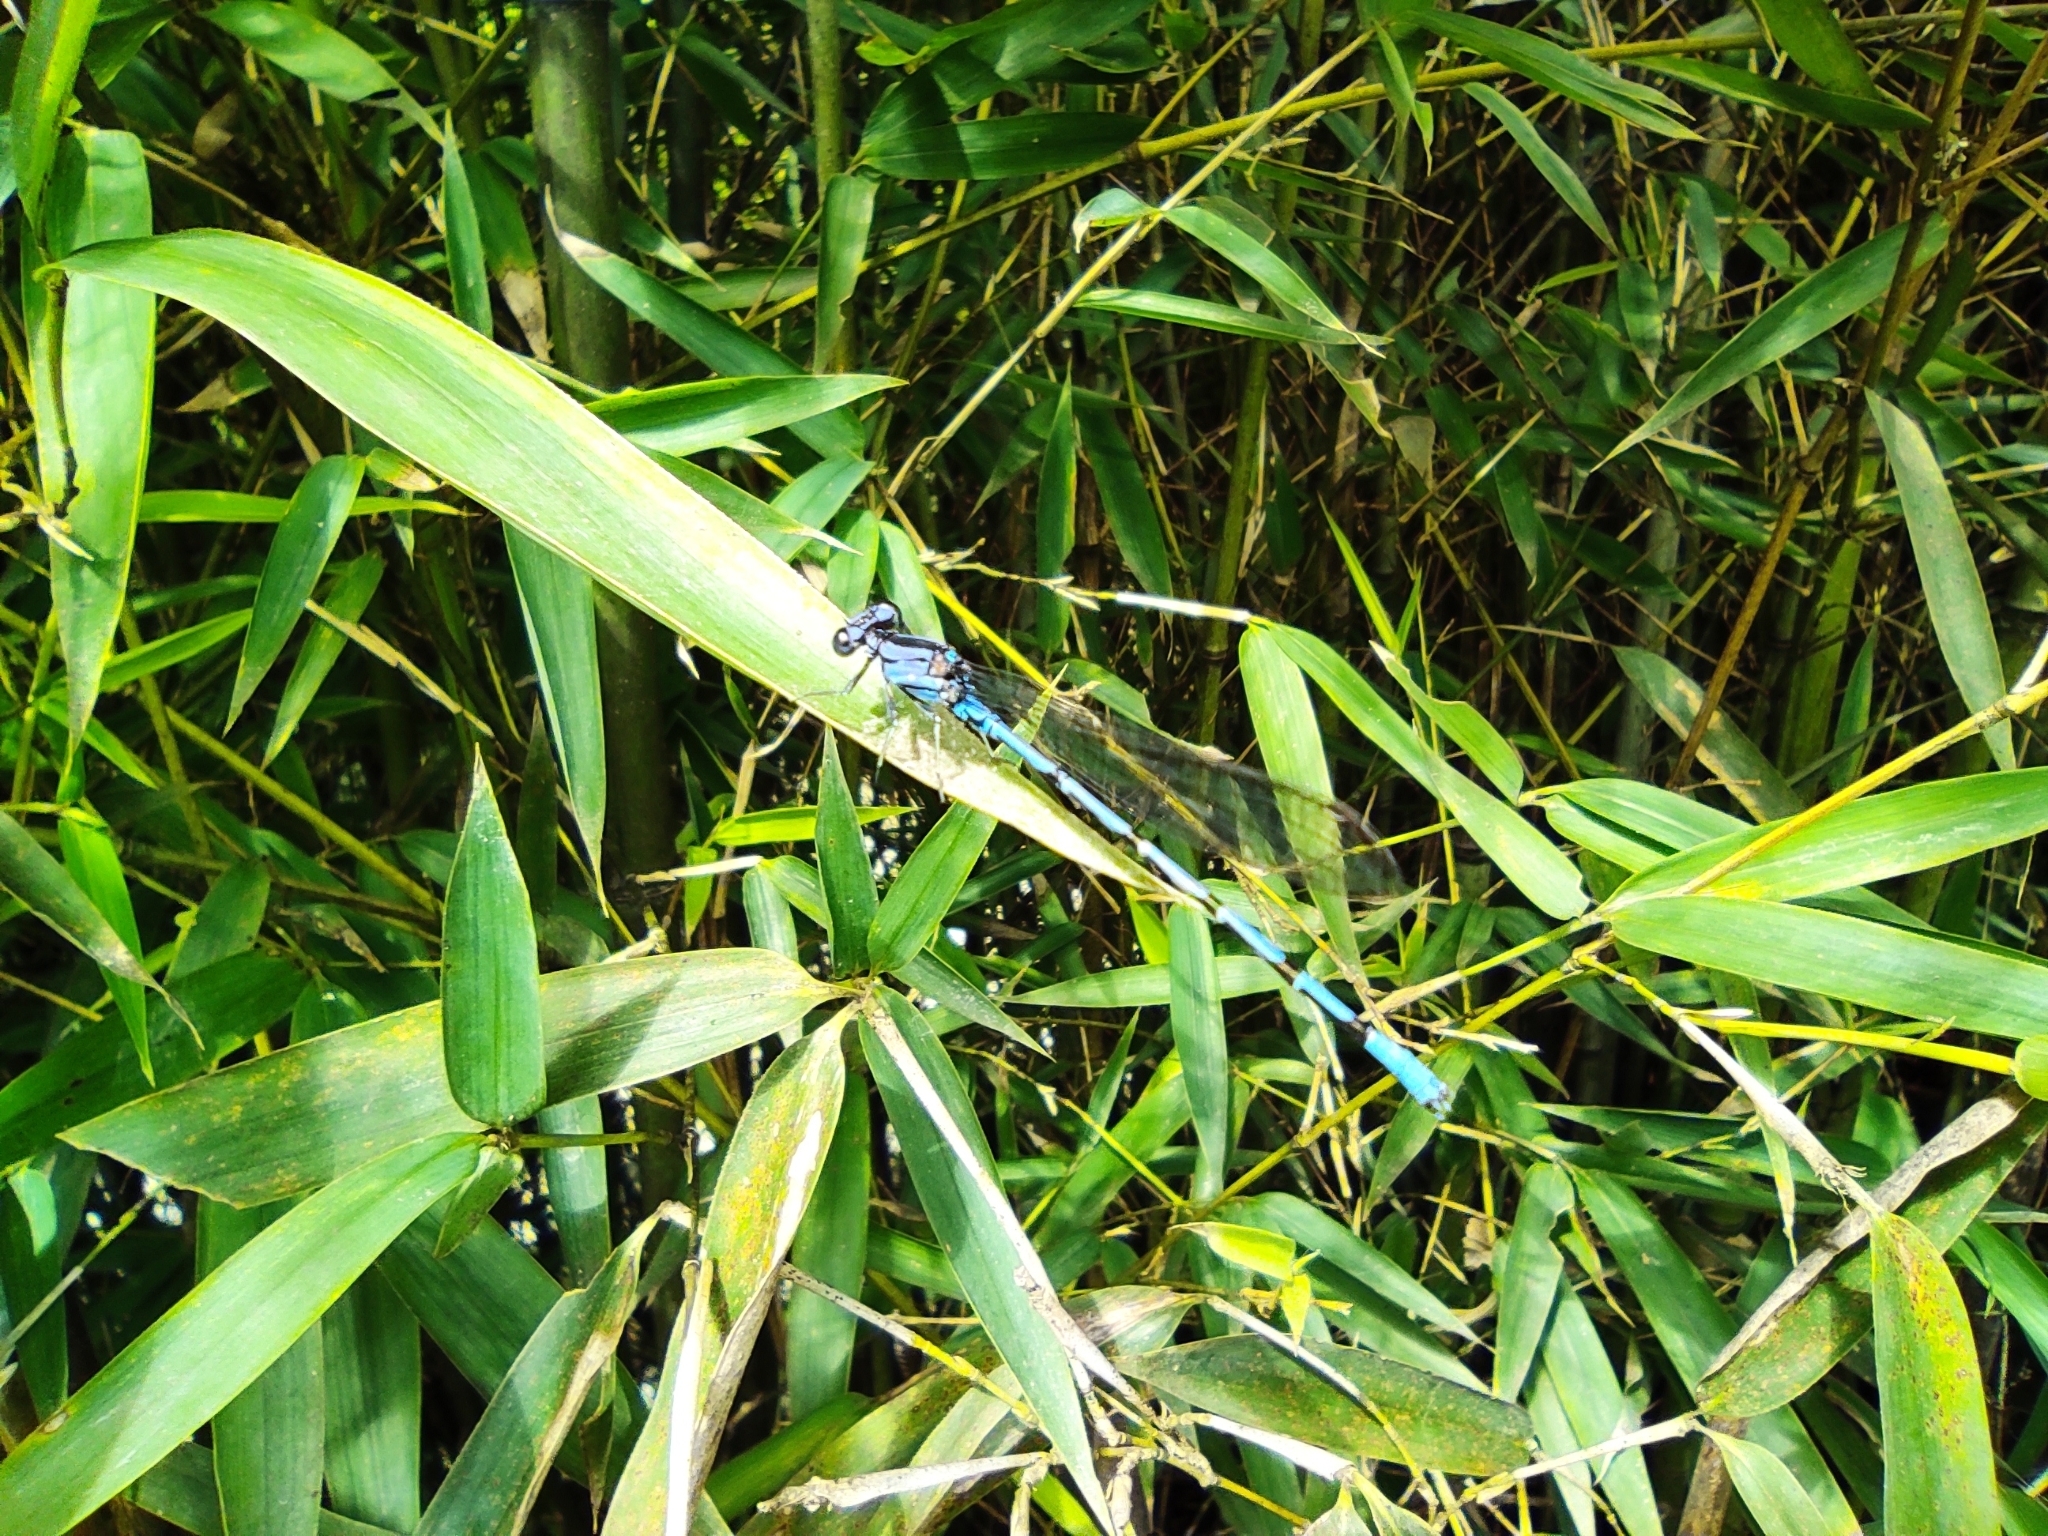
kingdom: Animalia
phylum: Arthropoda
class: Insecta
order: Odonata
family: Coenagrionidae
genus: Argia
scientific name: Argia anceps
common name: Cerulean dancer
